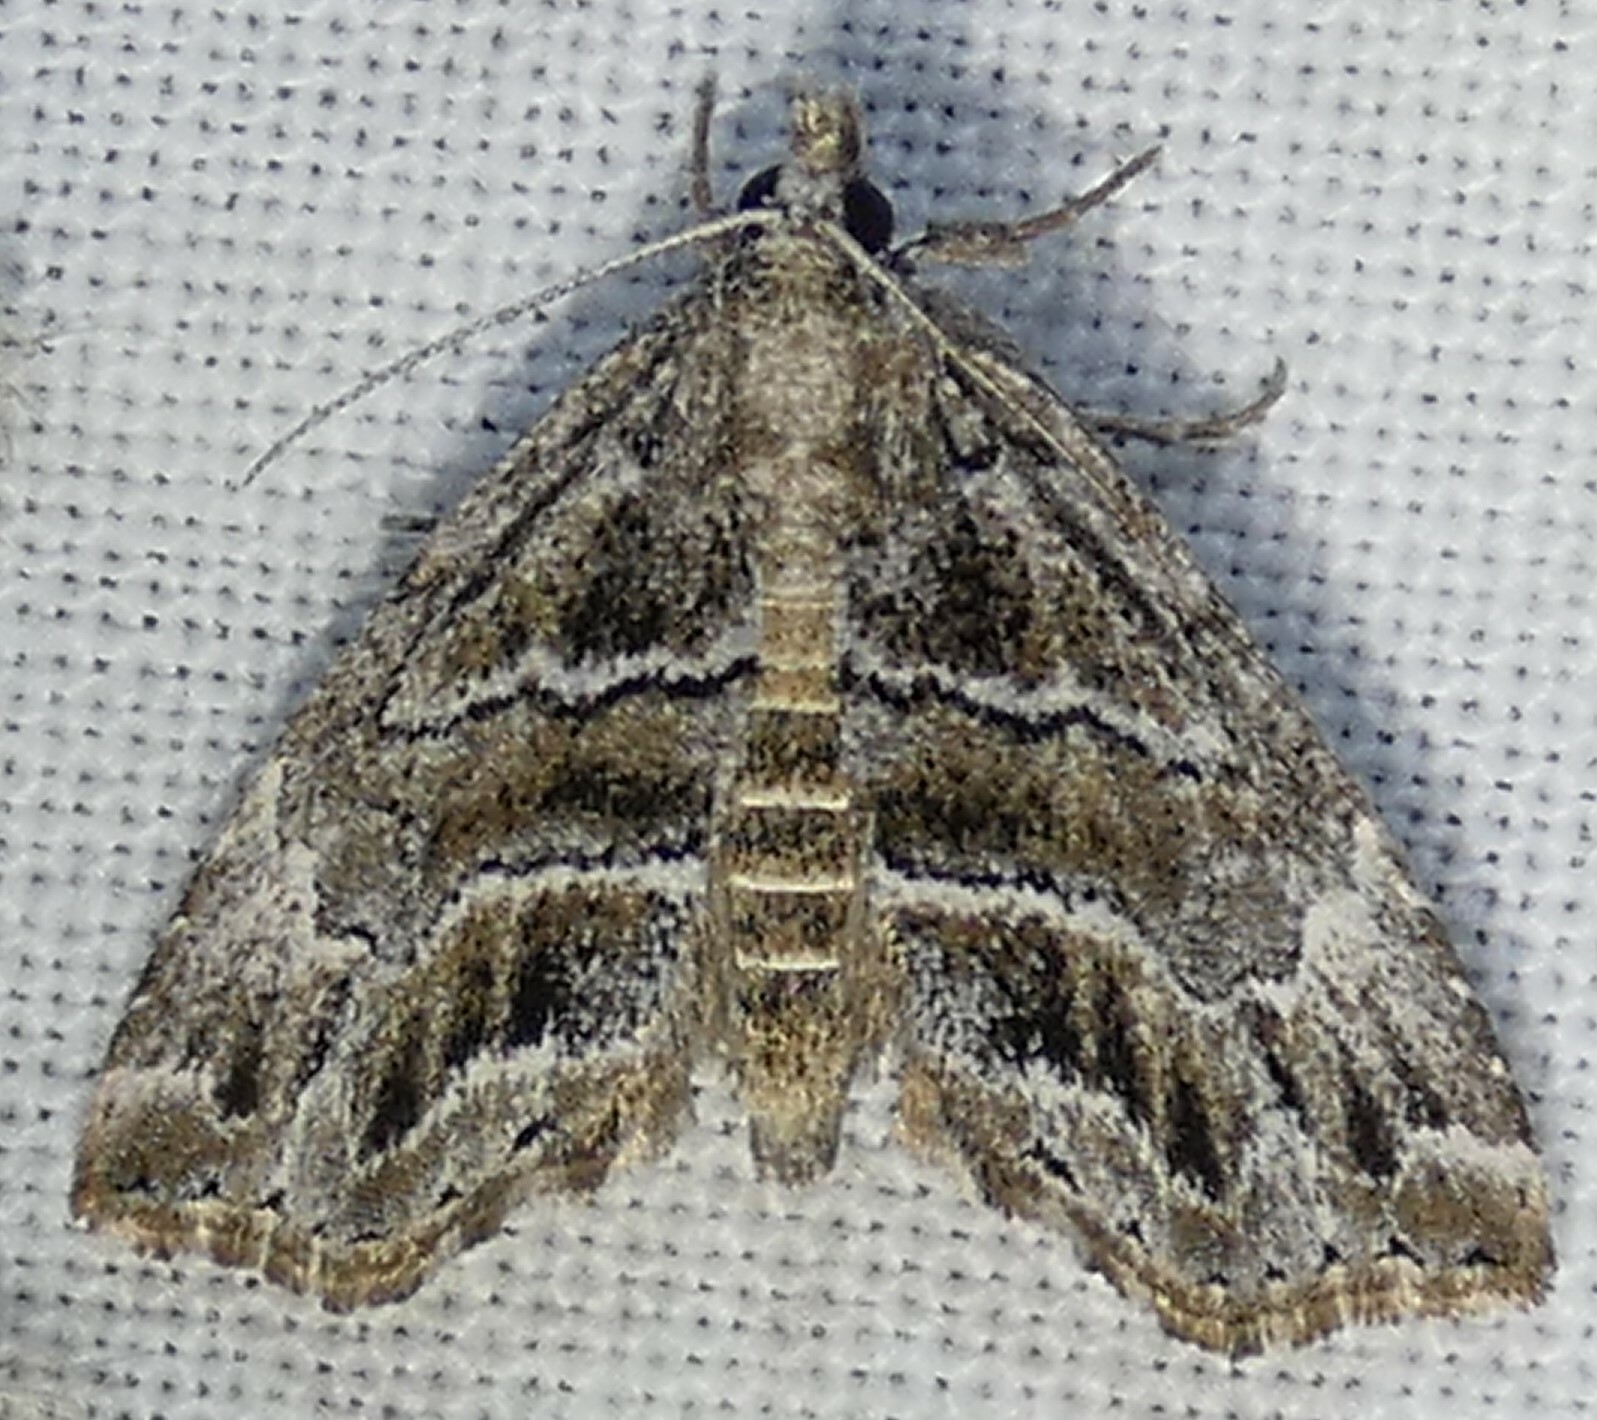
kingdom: Animalia
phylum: Arthropoda
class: Insecta
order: Lepidoptera
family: Erebidae
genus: Cutina
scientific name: Cutina arcuata
